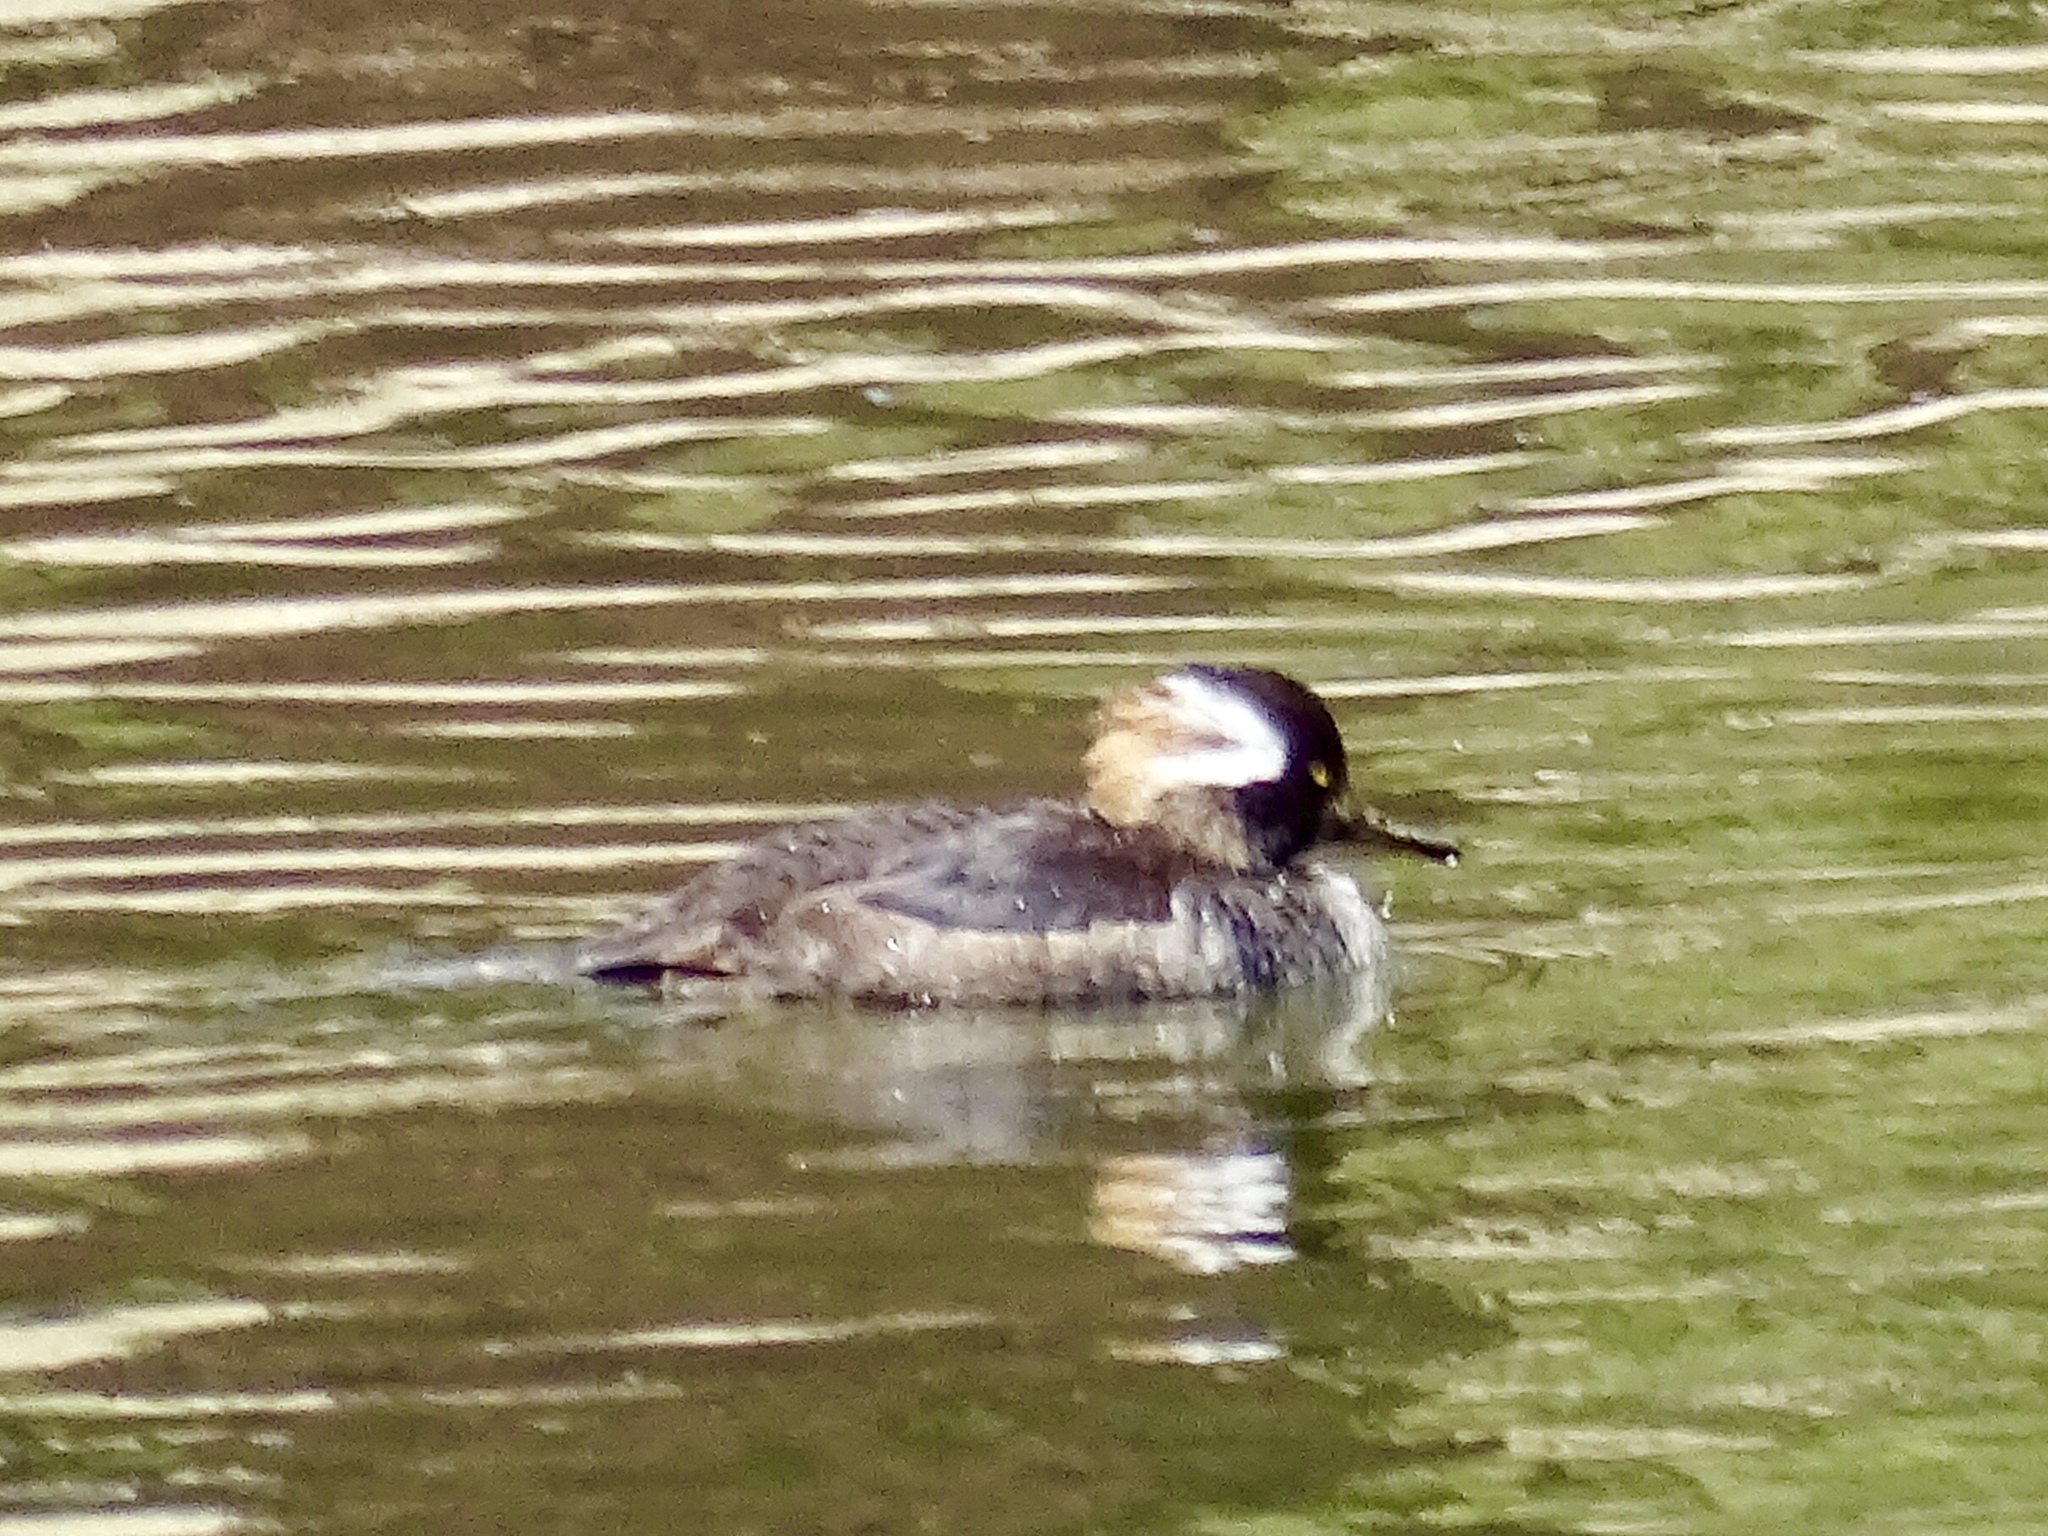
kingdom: Animalia
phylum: Chordata
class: Aves
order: Anseriformes
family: Anatidae
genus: Lophodytes
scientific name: Lophodytes cucullatus
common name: Hooded merganser
